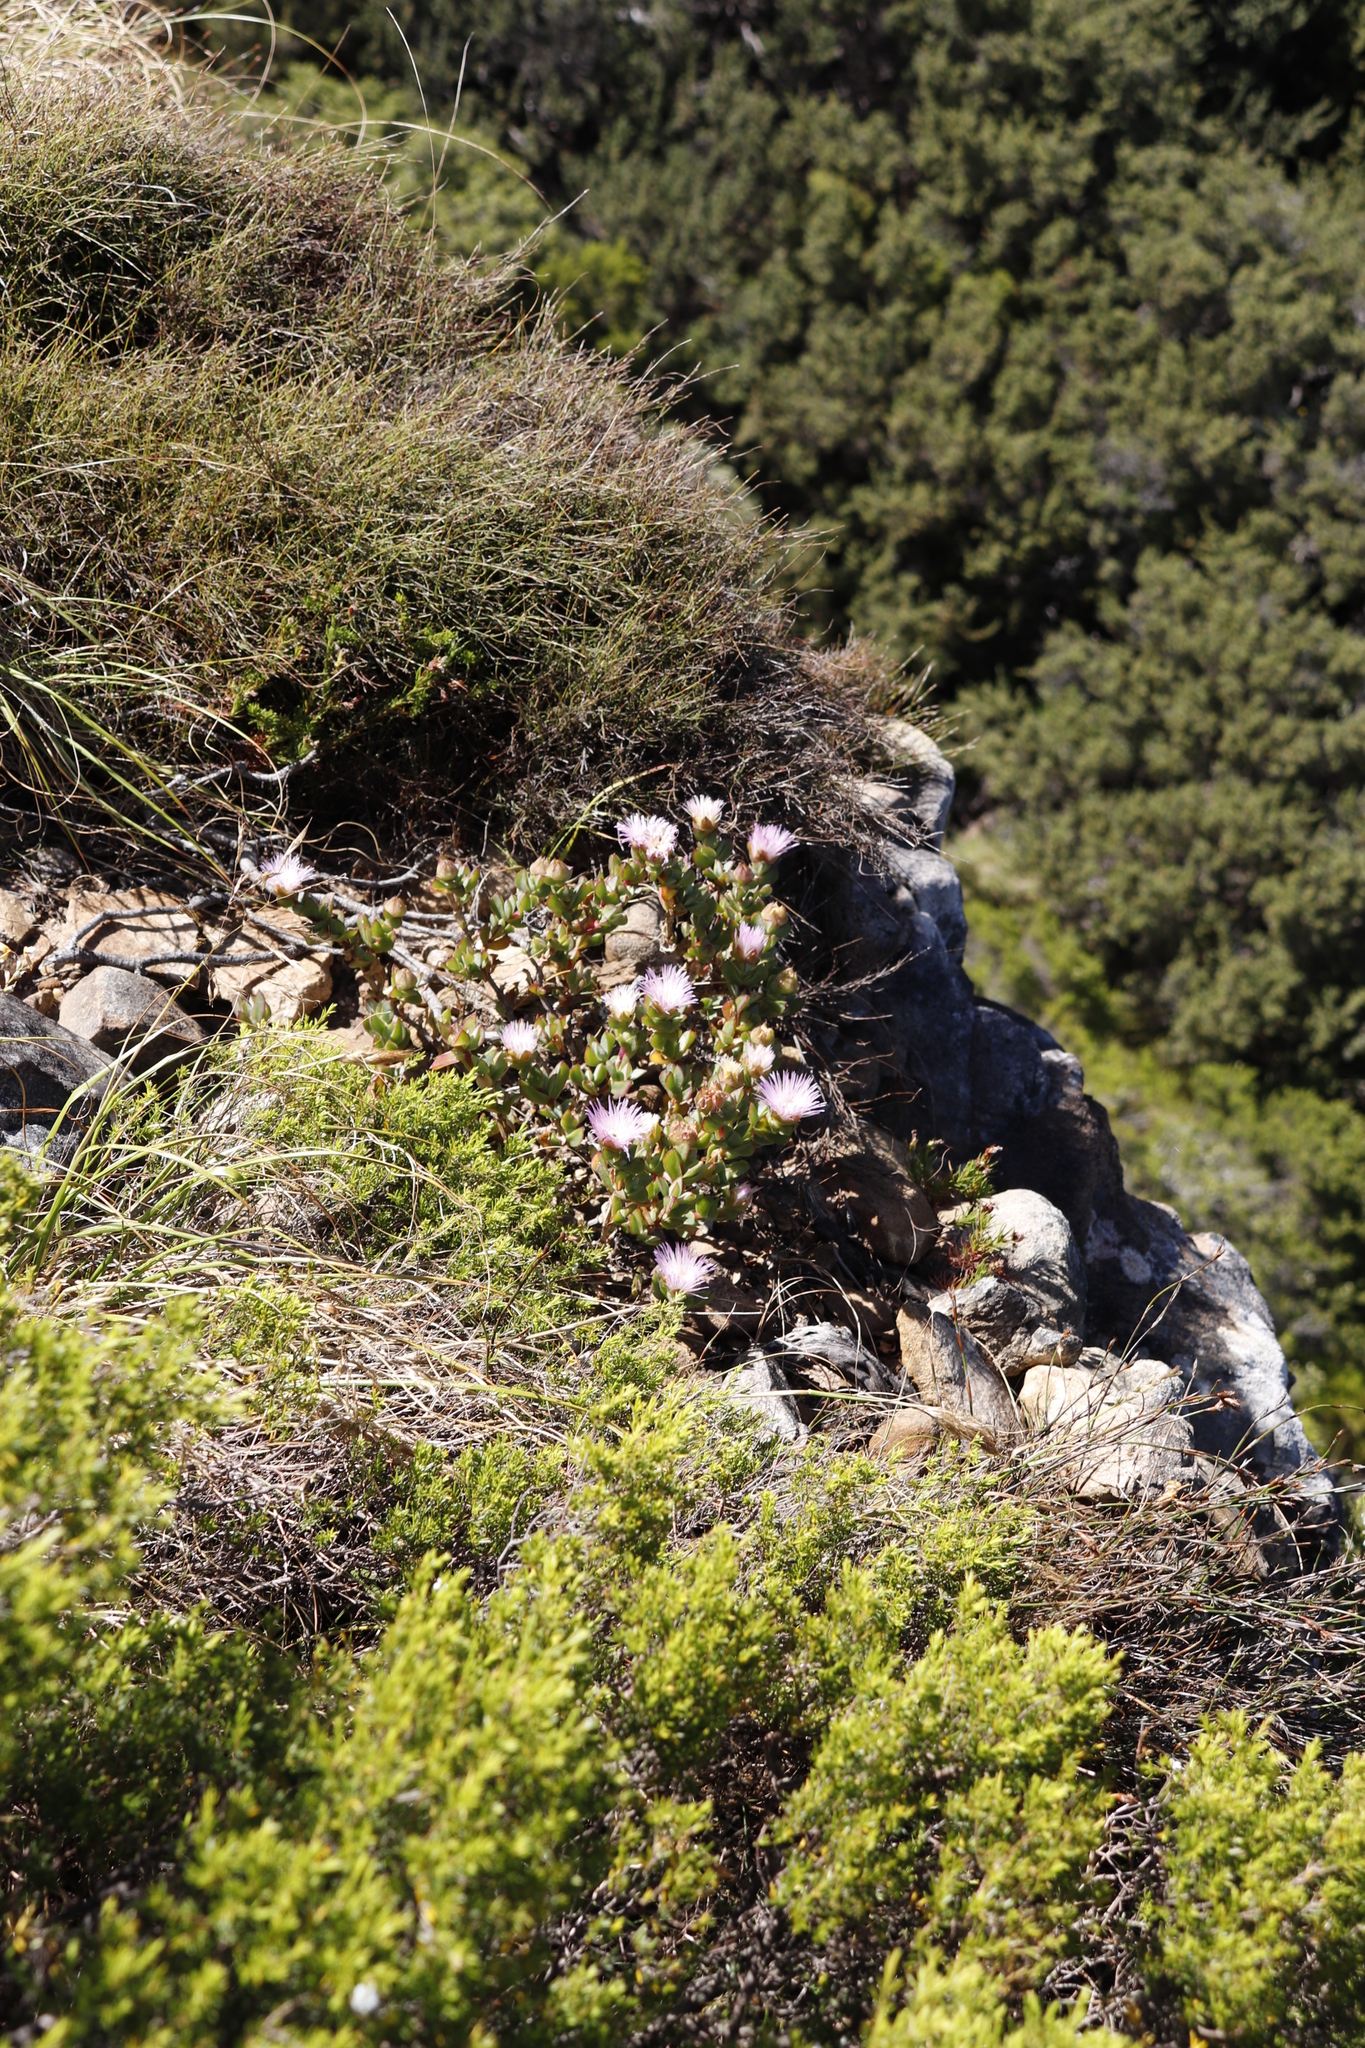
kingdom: Plantae
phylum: Tracheophyta
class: Magnoliopsida
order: Caryophyllales
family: Aizoaceae
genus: Erepsia
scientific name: Erepsia forficata
